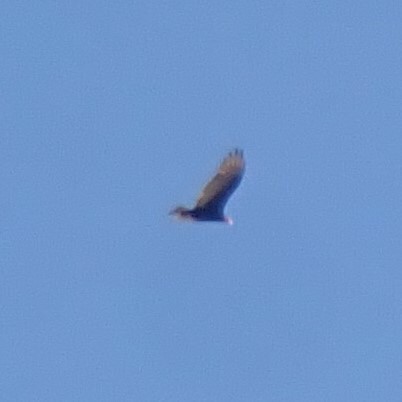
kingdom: Animalia
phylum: Chordata
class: Aves
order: Accipitriformes
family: Cathartidae
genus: Cathartes
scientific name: Cathartes aura
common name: Turkey vulture
